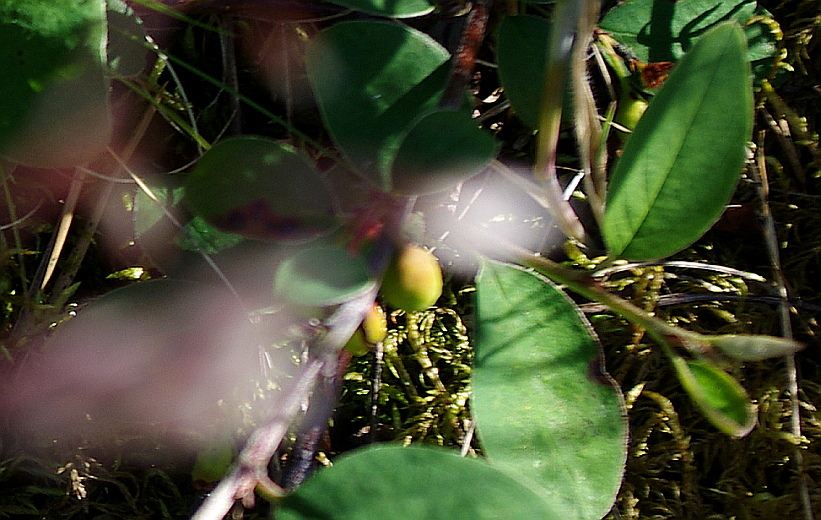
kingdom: Plantae
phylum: Tracheophyta
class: Magnoliopsida
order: Rosales
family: Rosaceae
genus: Cotoneaster
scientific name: Cotoneaster integerrimus
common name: Wild cotoneaster
